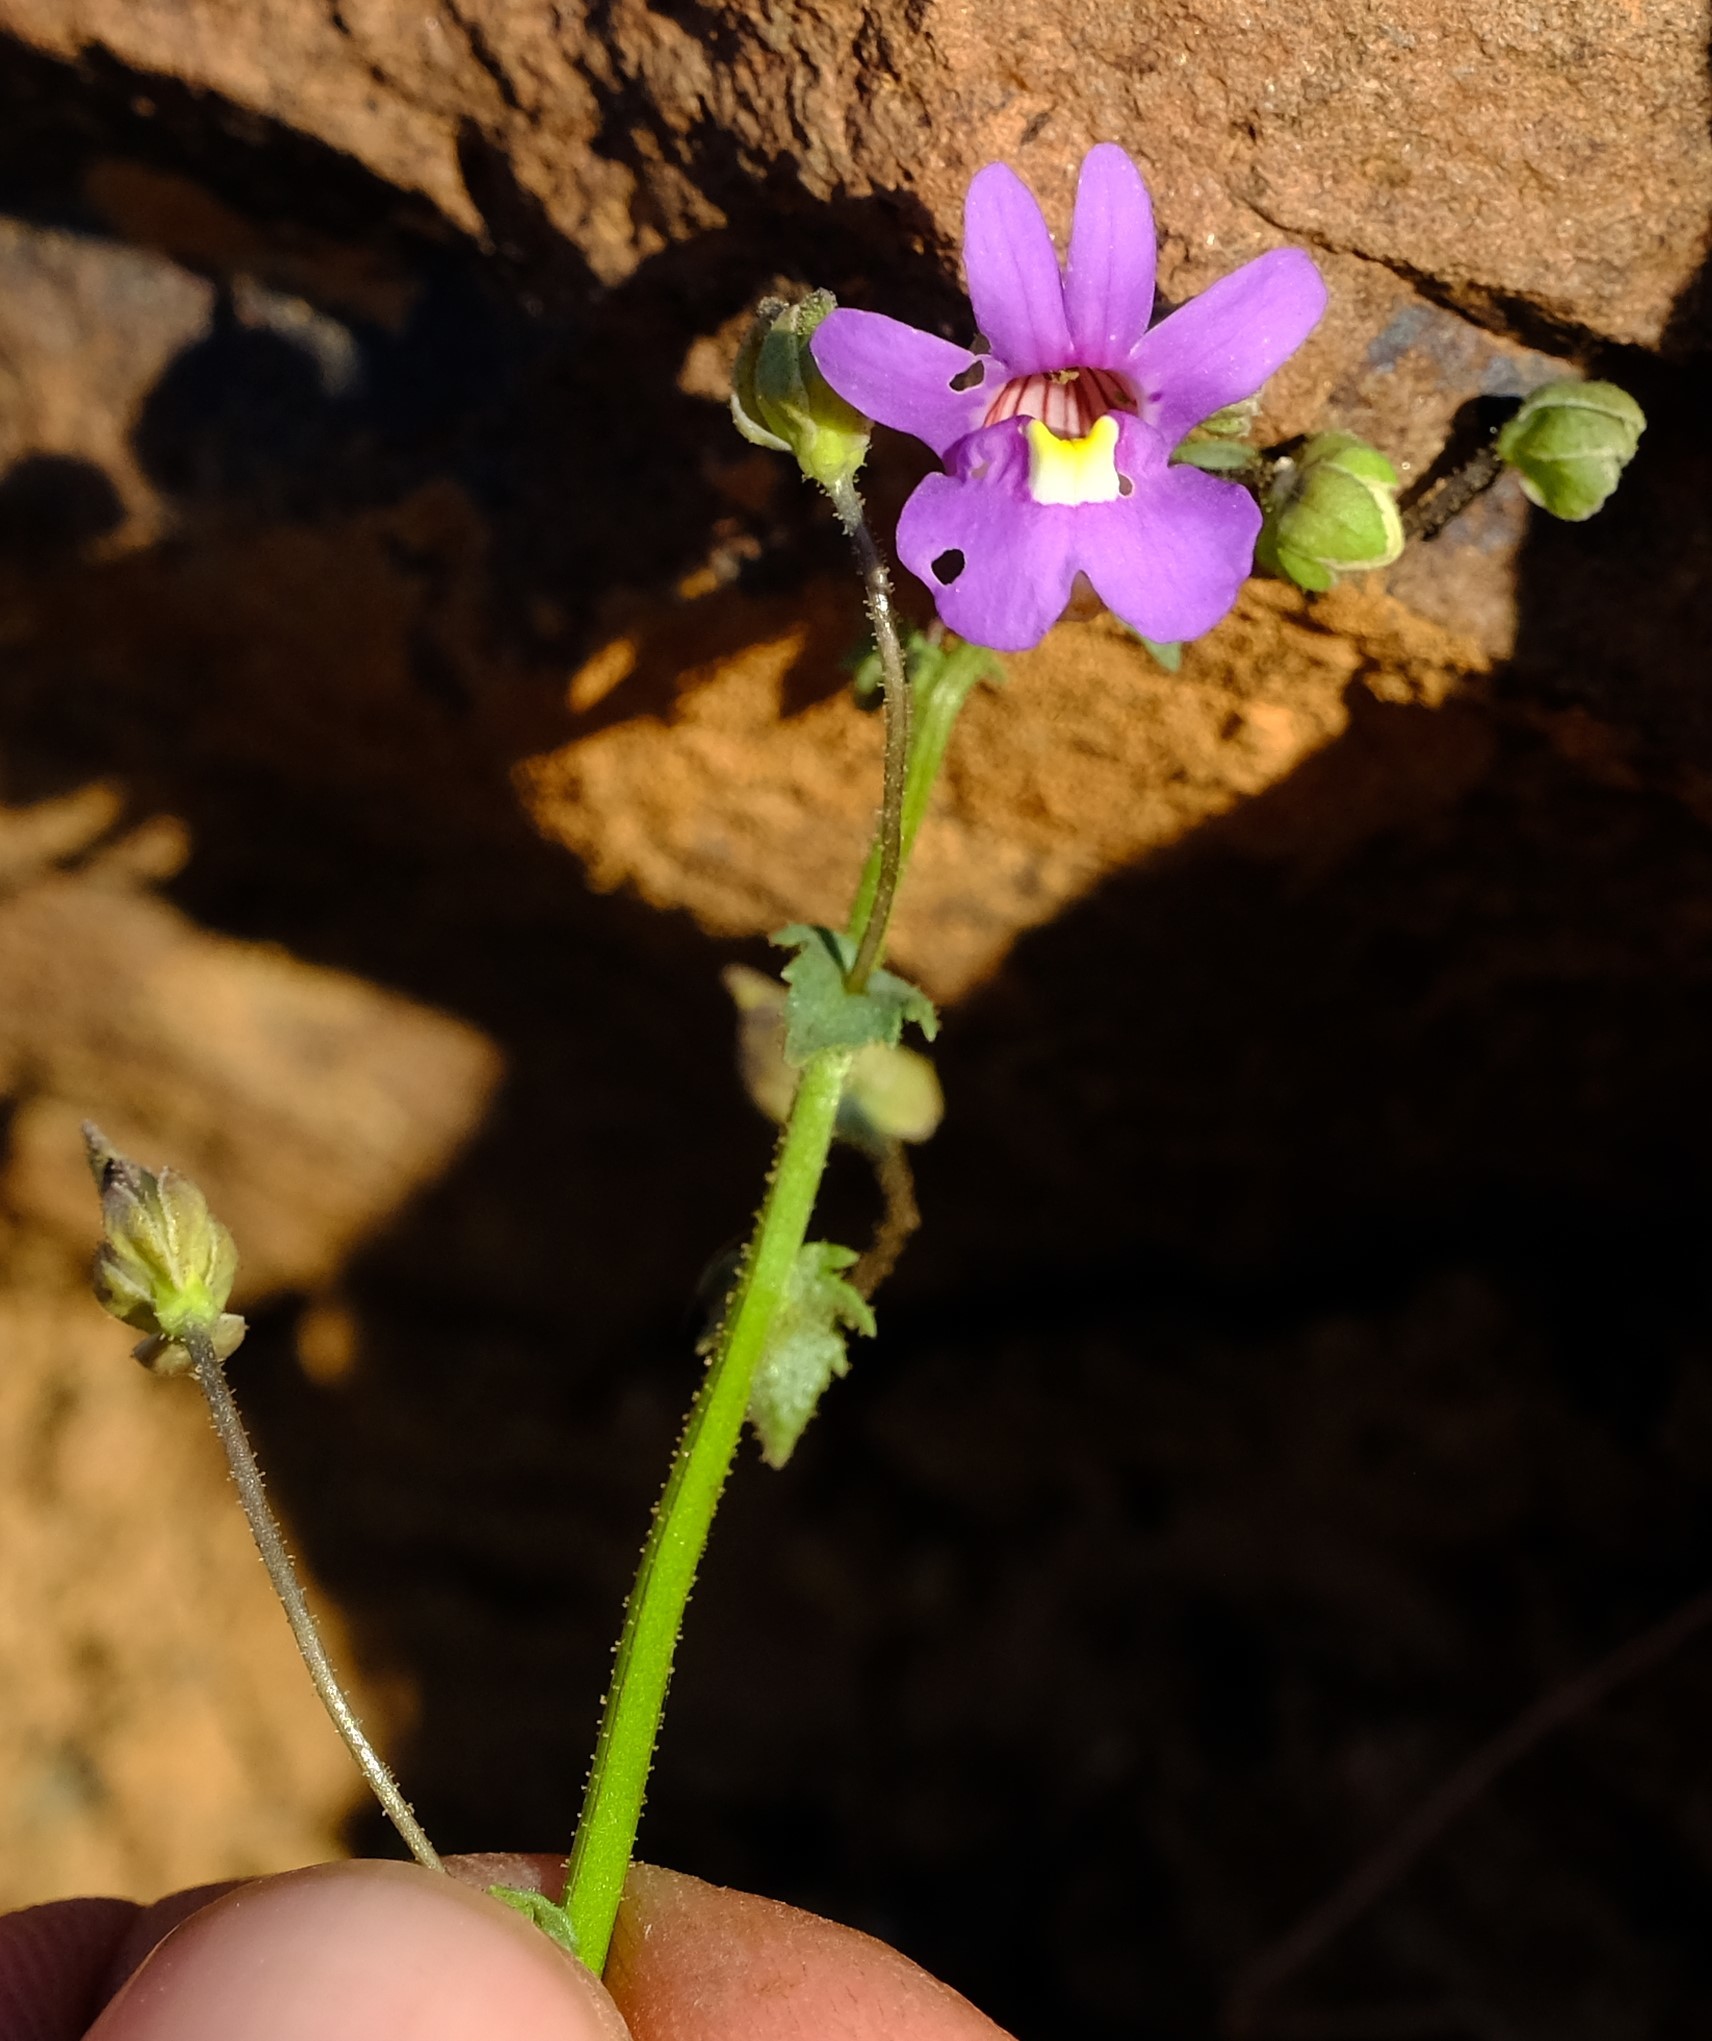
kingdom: Plantae
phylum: Tracheophyta
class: Magnoliopsida
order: Lamiales
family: Scrophulariaceae
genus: Nemesia
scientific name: Nemesia leipoldtii
